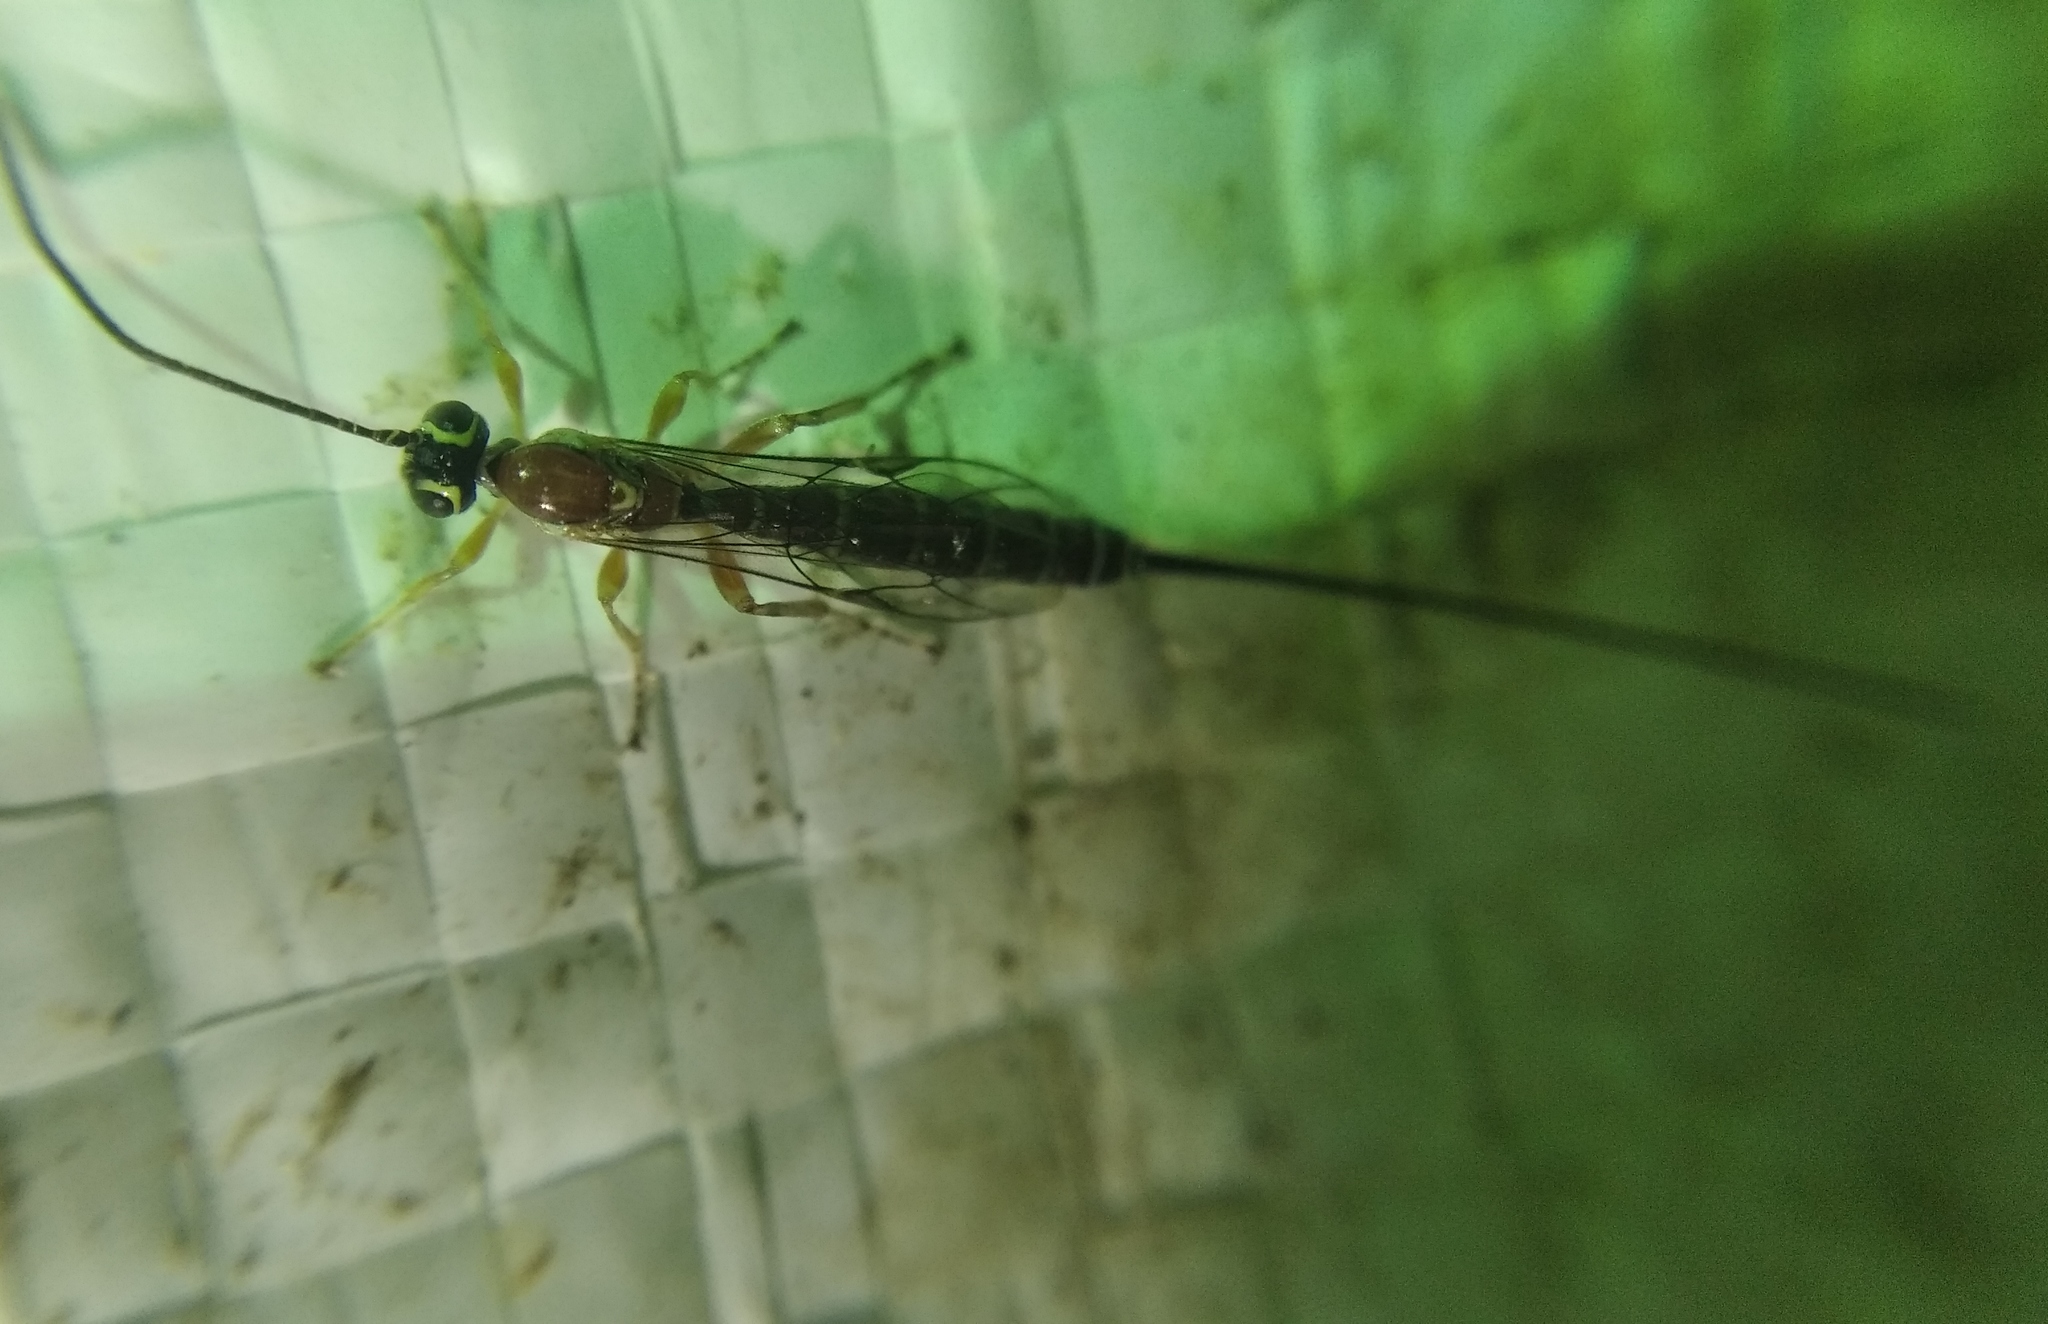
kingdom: Animalia
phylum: Arthropoda
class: Insecta
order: Hymenoptera
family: Ichneumonidae
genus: Perithous
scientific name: Perithous septemcinctorius
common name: Ichneumonid wasp
